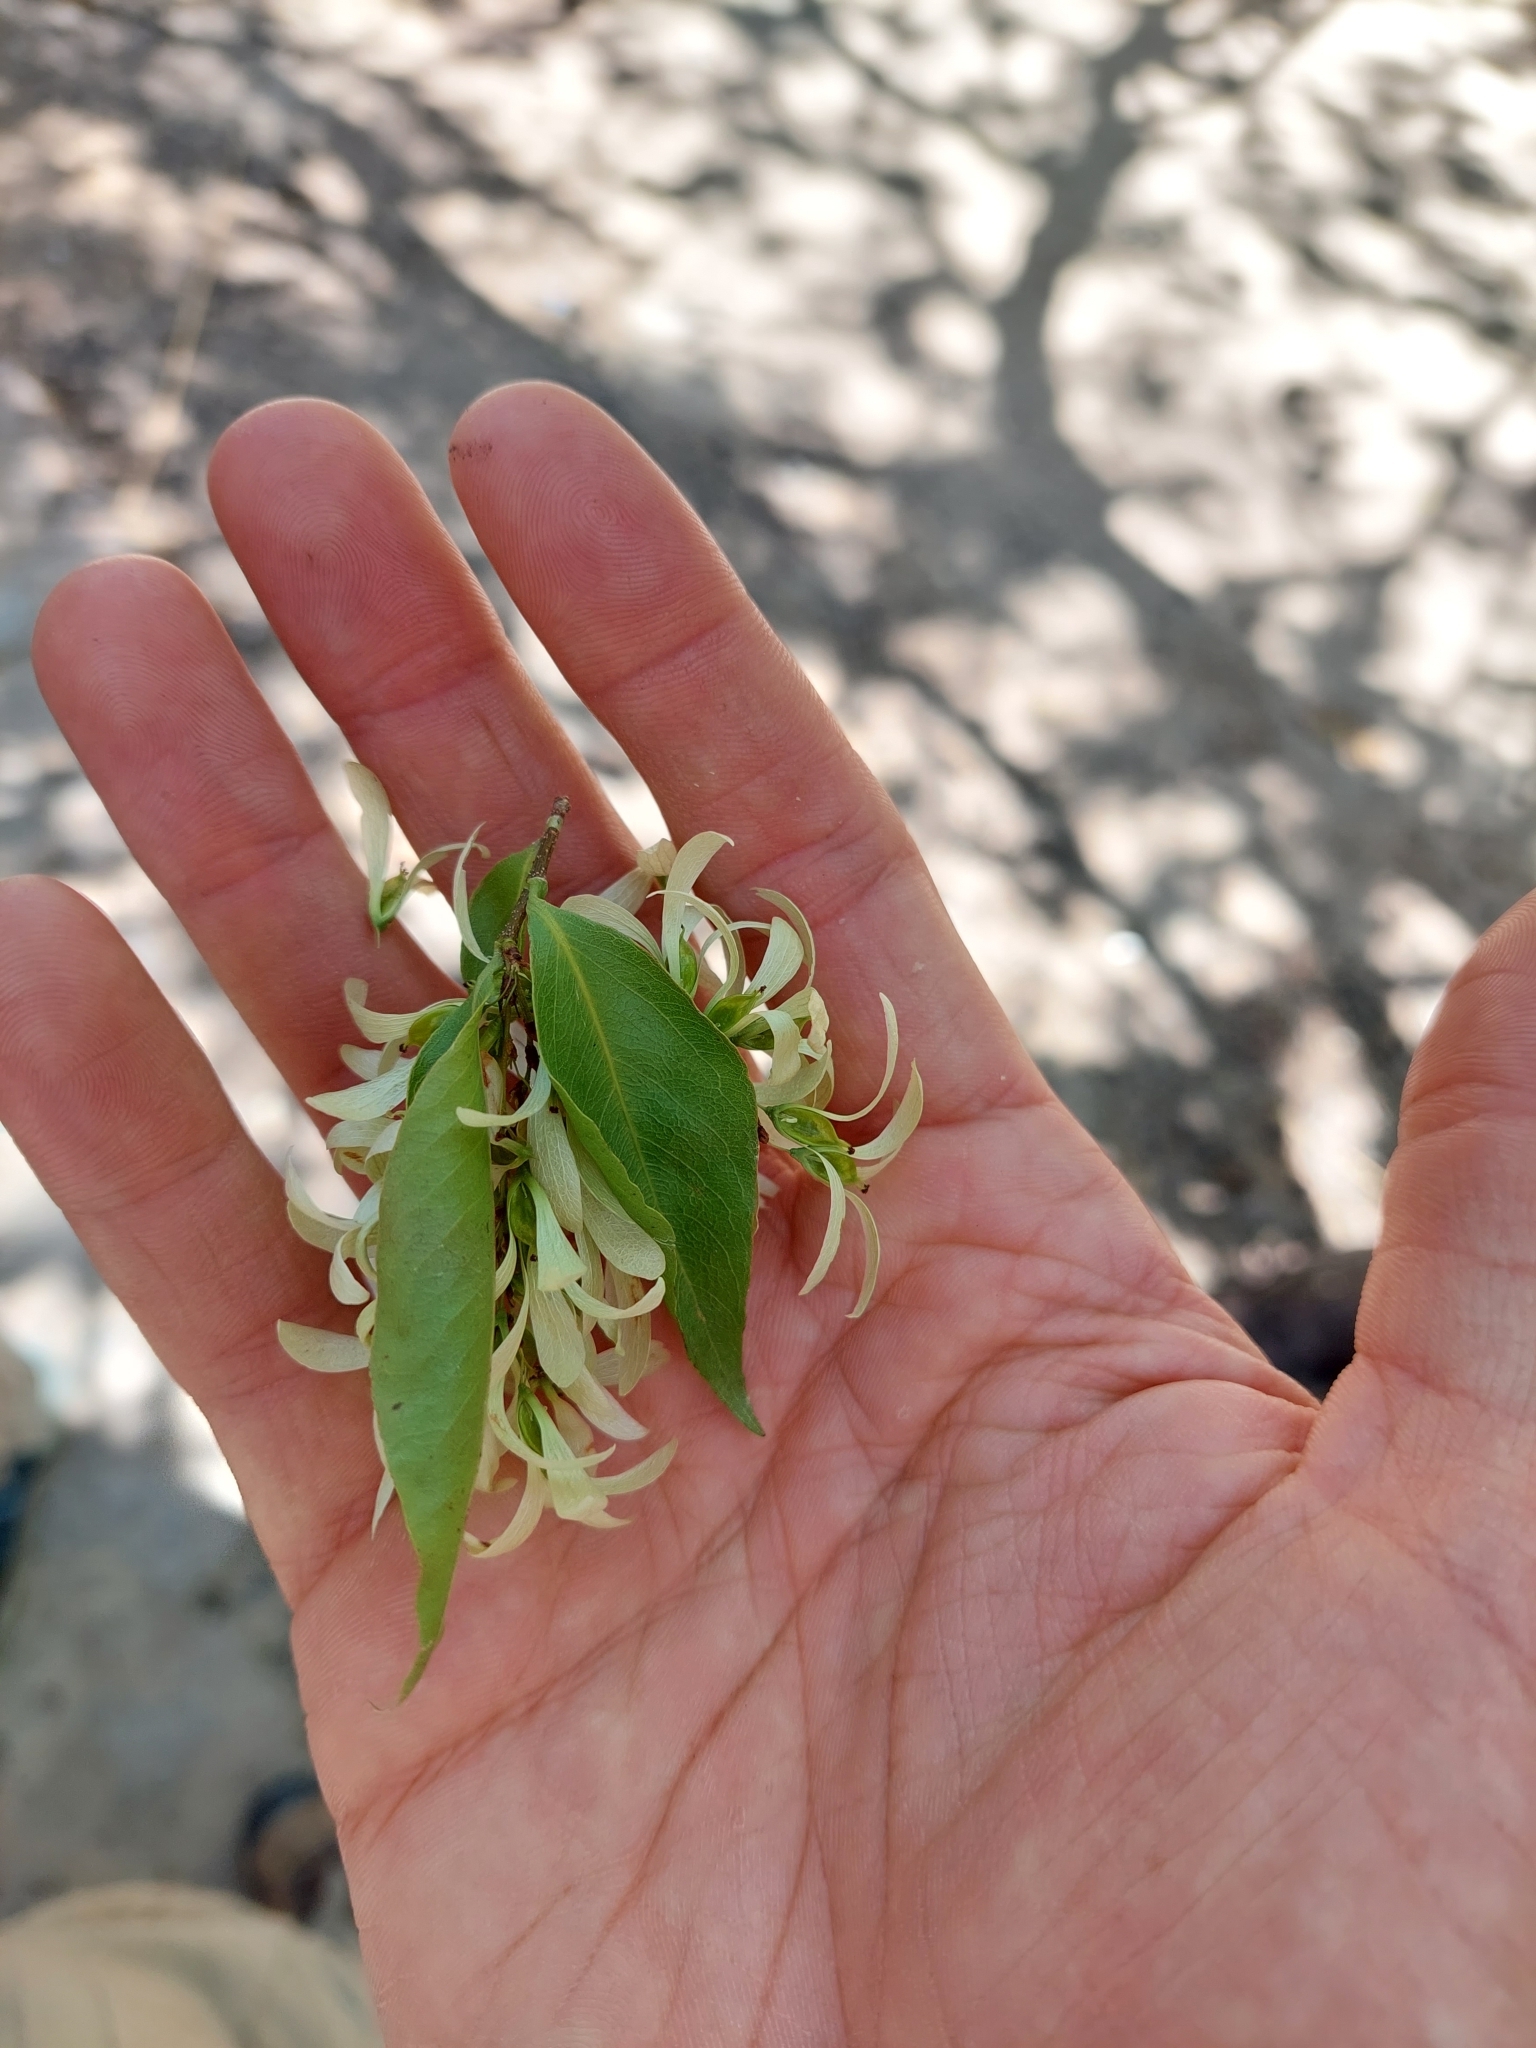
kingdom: Plantae
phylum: Tracheophyta
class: Magnoliopsida
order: Caryophyllales
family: Polygonaceae
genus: Ruprechtia
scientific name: Ruprechtia laxiflora
